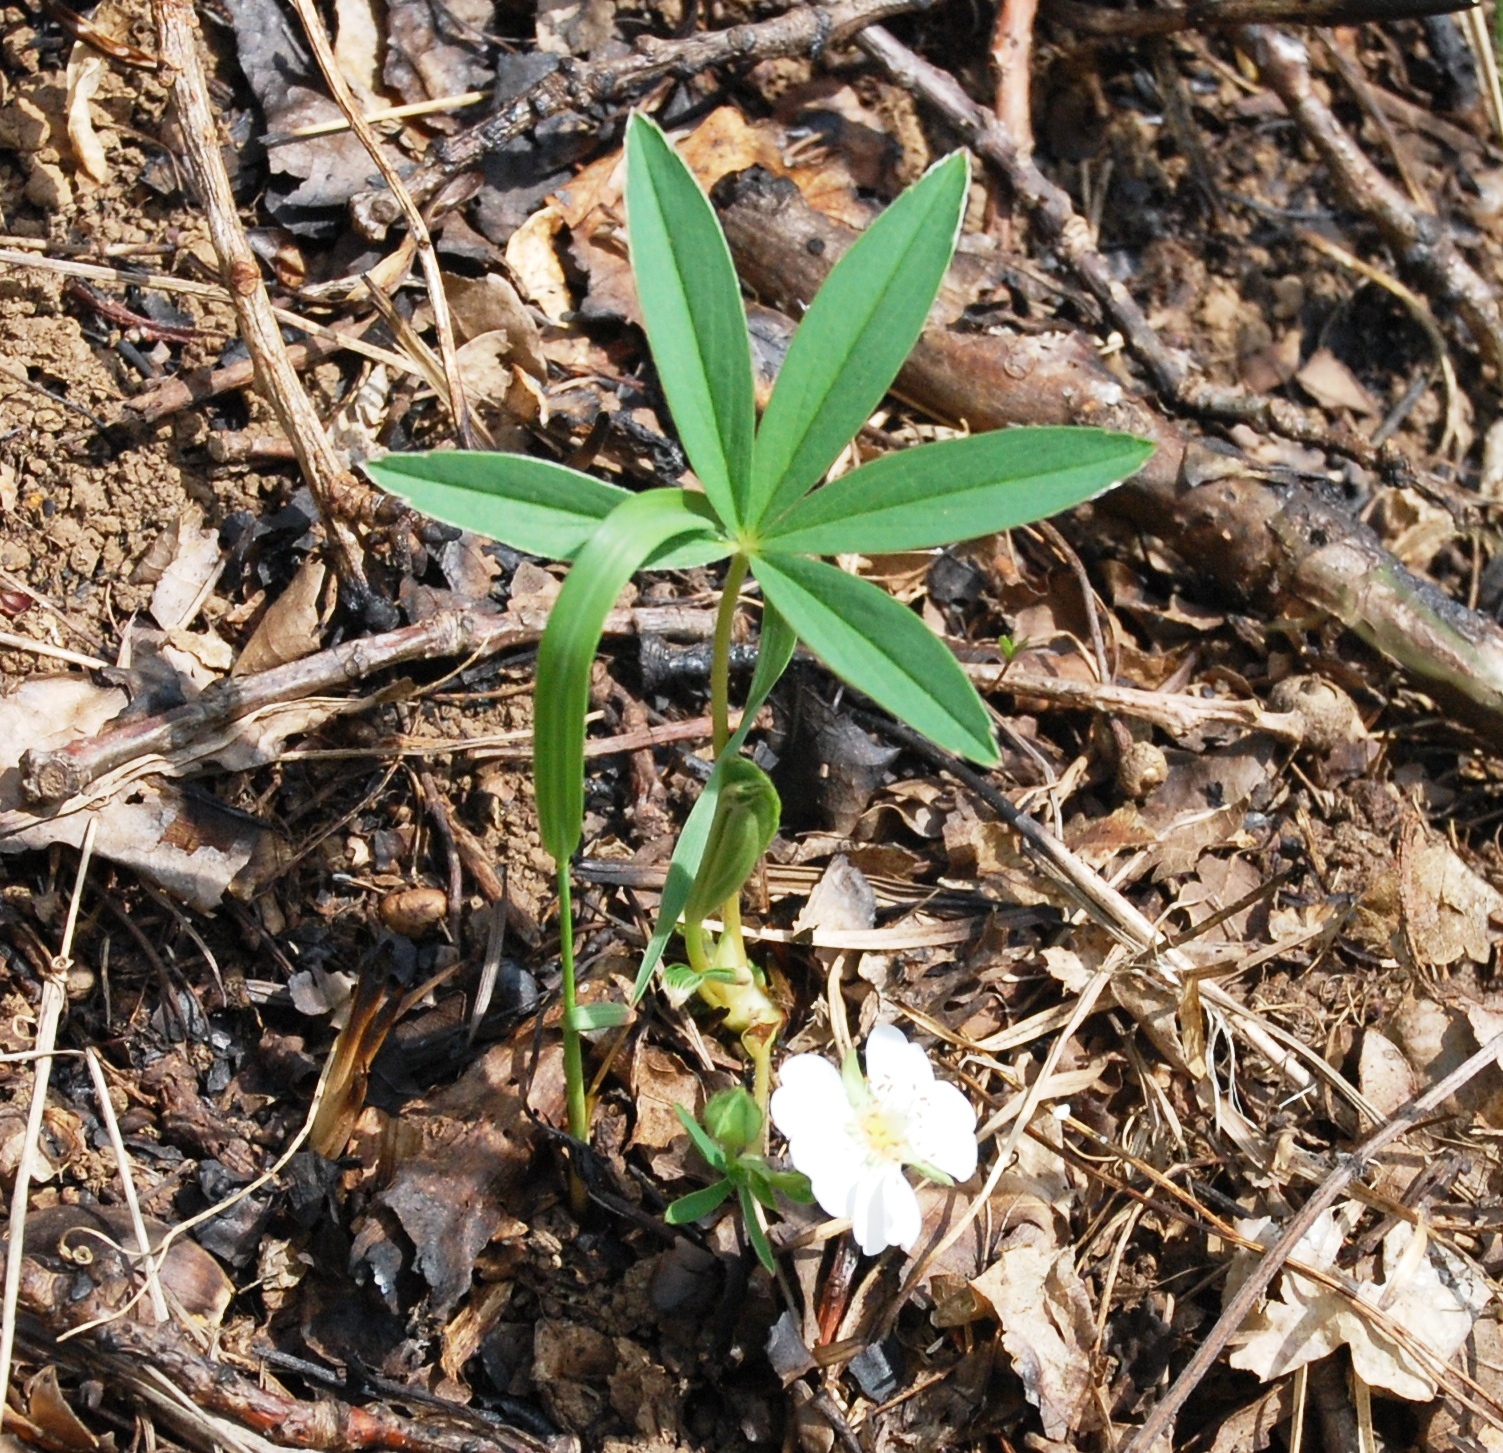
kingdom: Plantae
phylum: Tracheophyta
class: Magnoliopsida
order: Rosales
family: Rosaceae
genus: Potentilla
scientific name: Potentilla alba
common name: White cinquefoil
